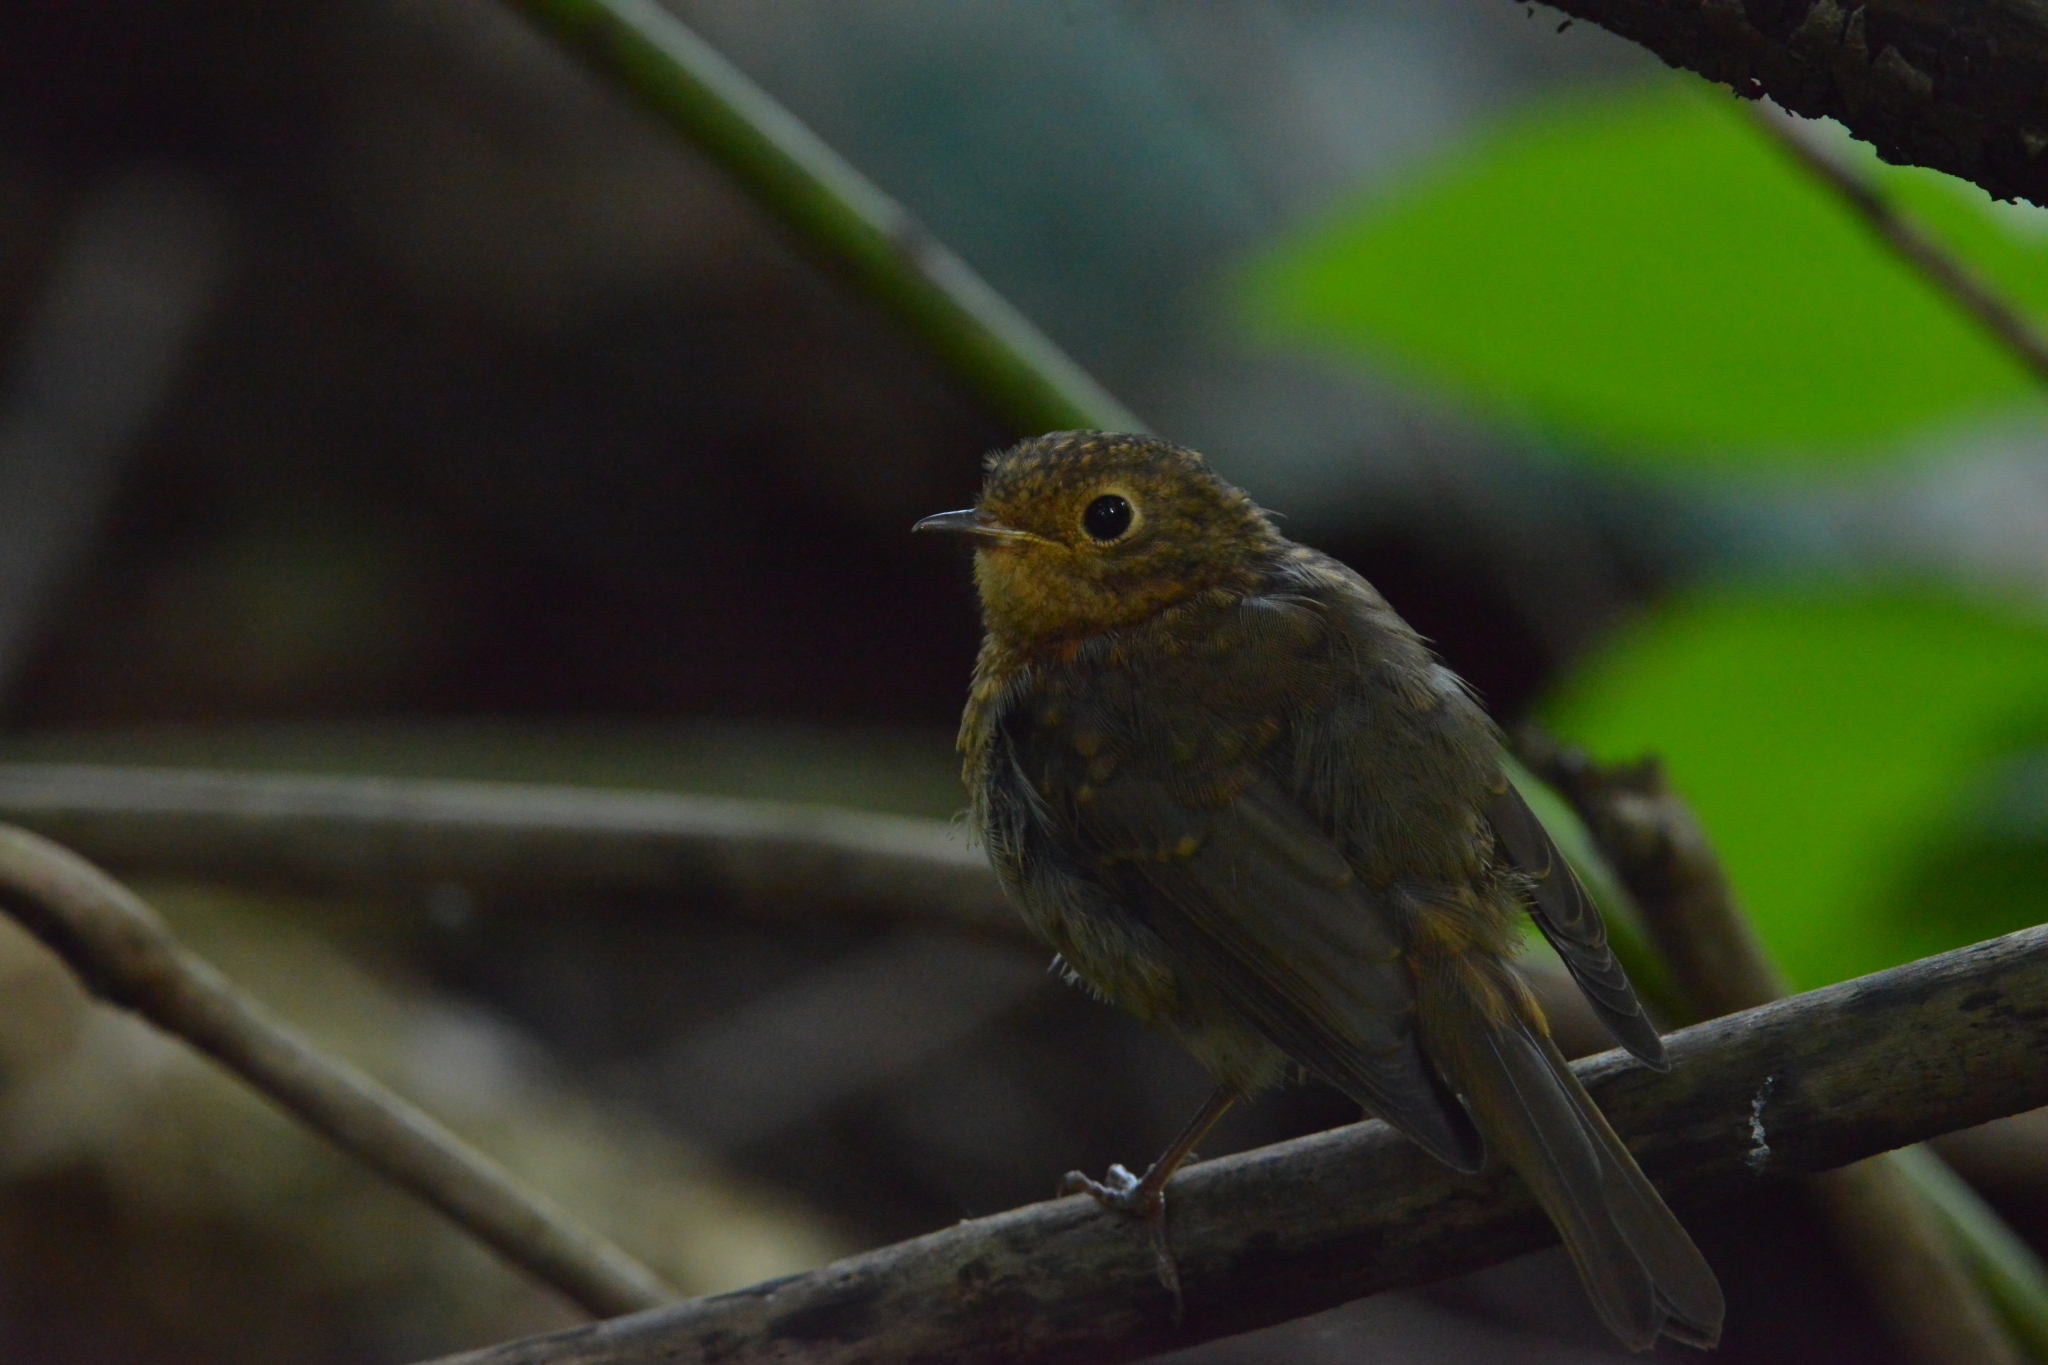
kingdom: Animalia
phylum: Chordata
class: Aves
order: Passeriformes
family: Muscicapidae
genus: Erithacus
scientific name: Erithacus rubecula
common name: European robin
